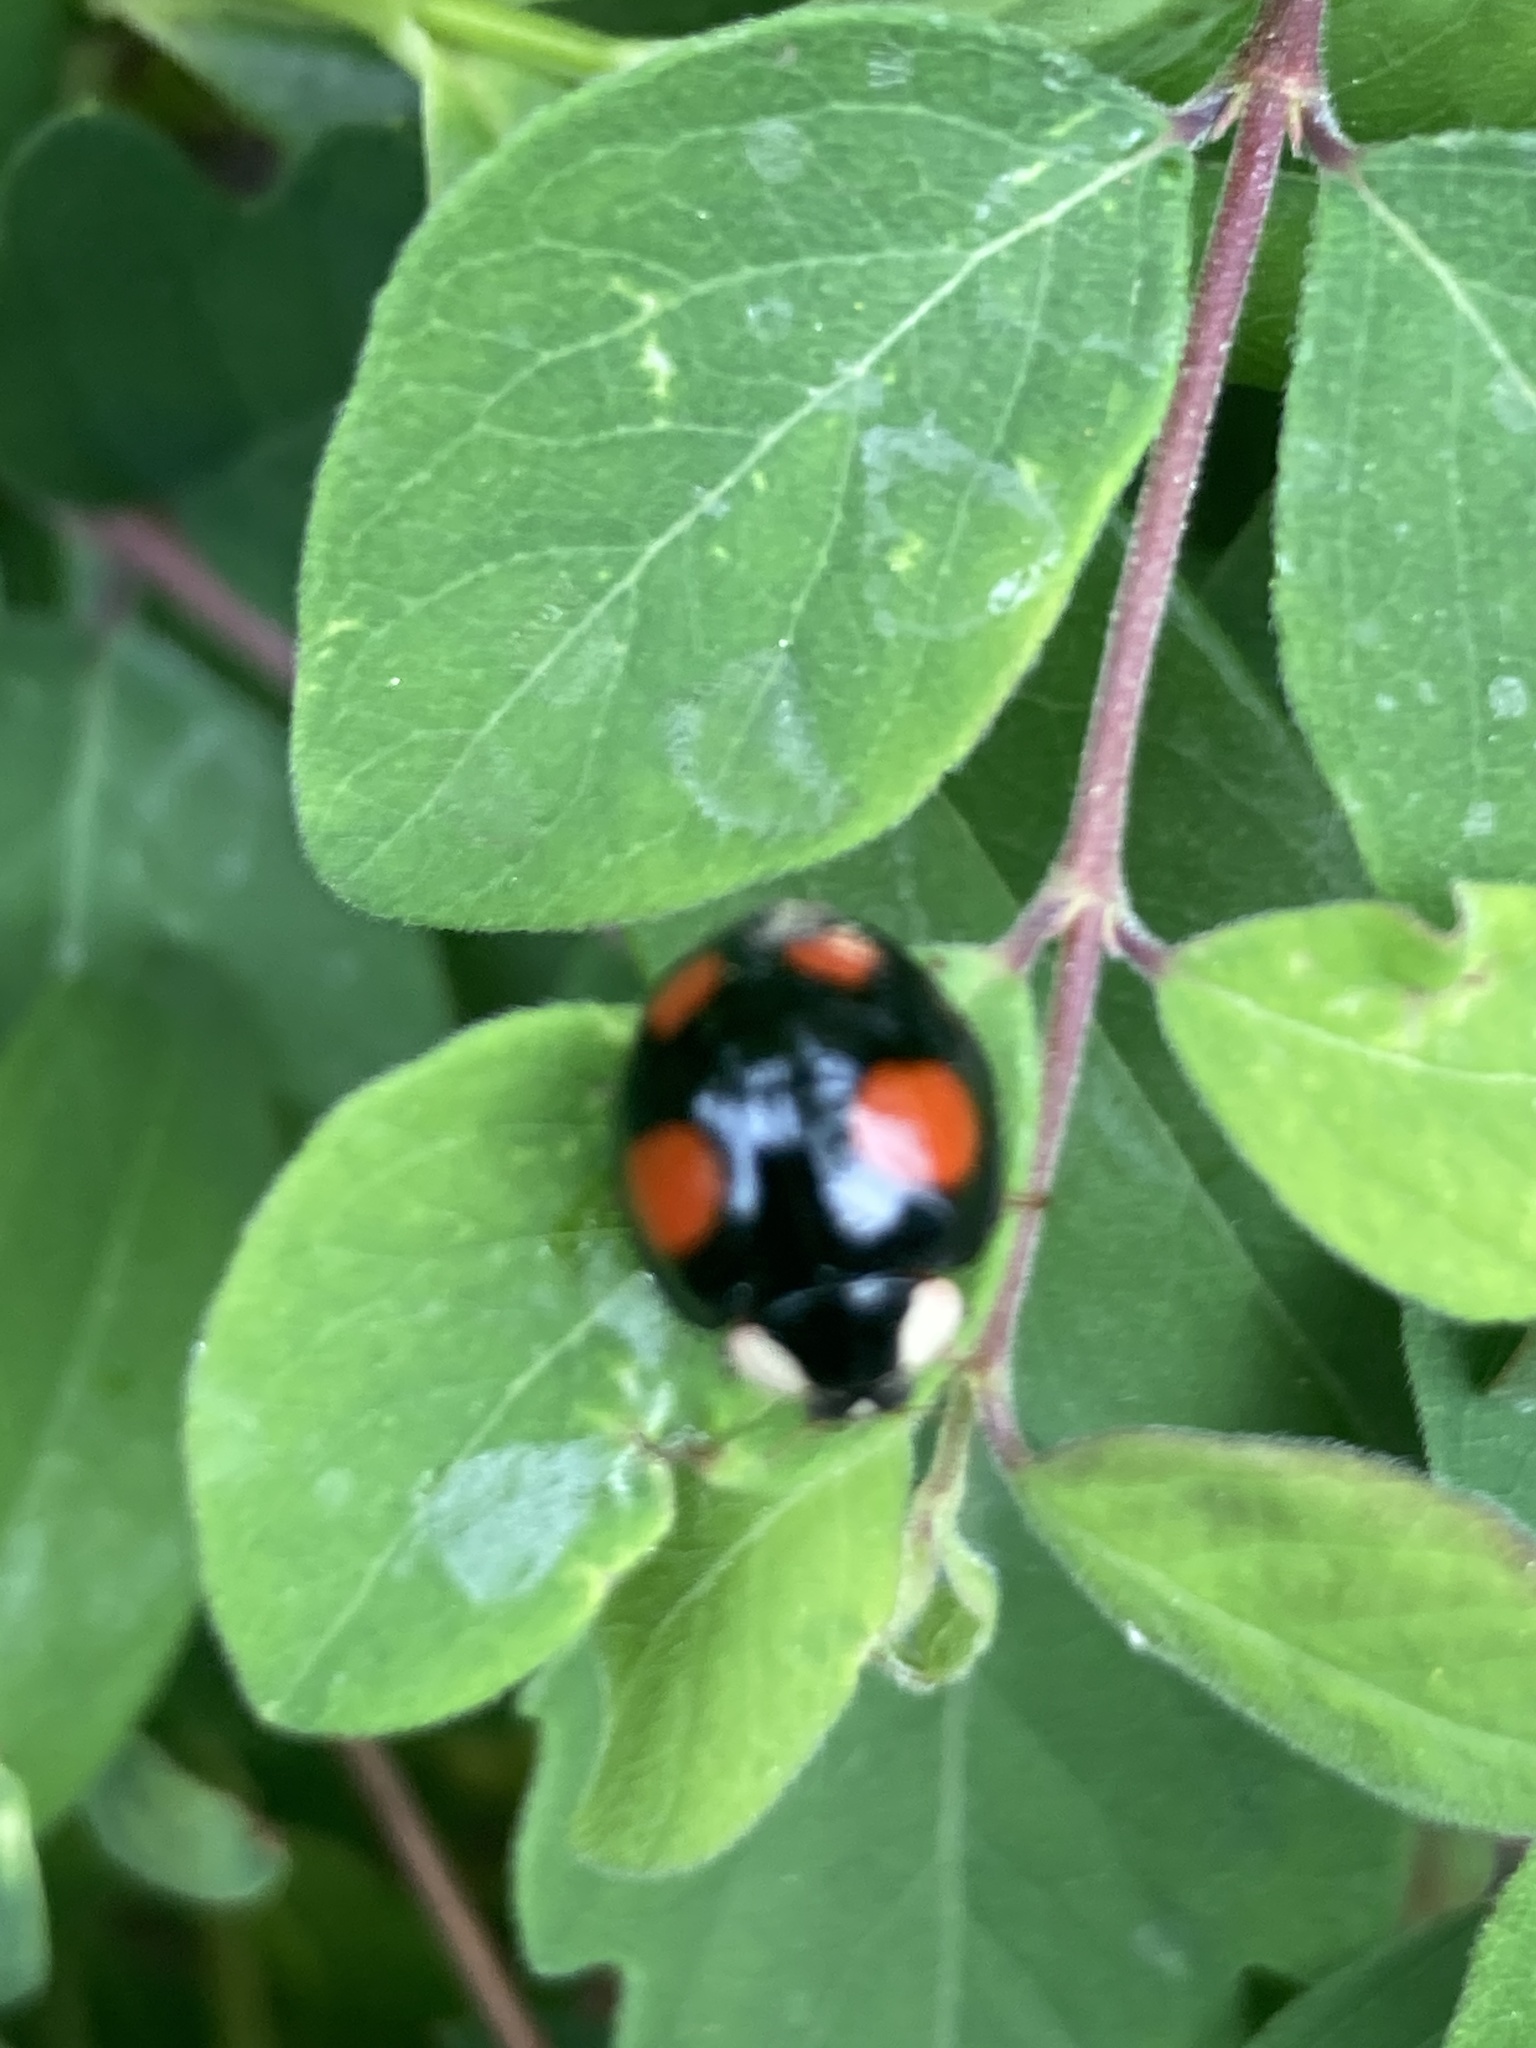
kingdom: Animalia
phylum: Arthropoda
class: Insecta
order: Coleoptera
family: Coccinellidae
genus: Harmonia
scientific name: Harmonia axyridis
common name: Harlequin ladybird
